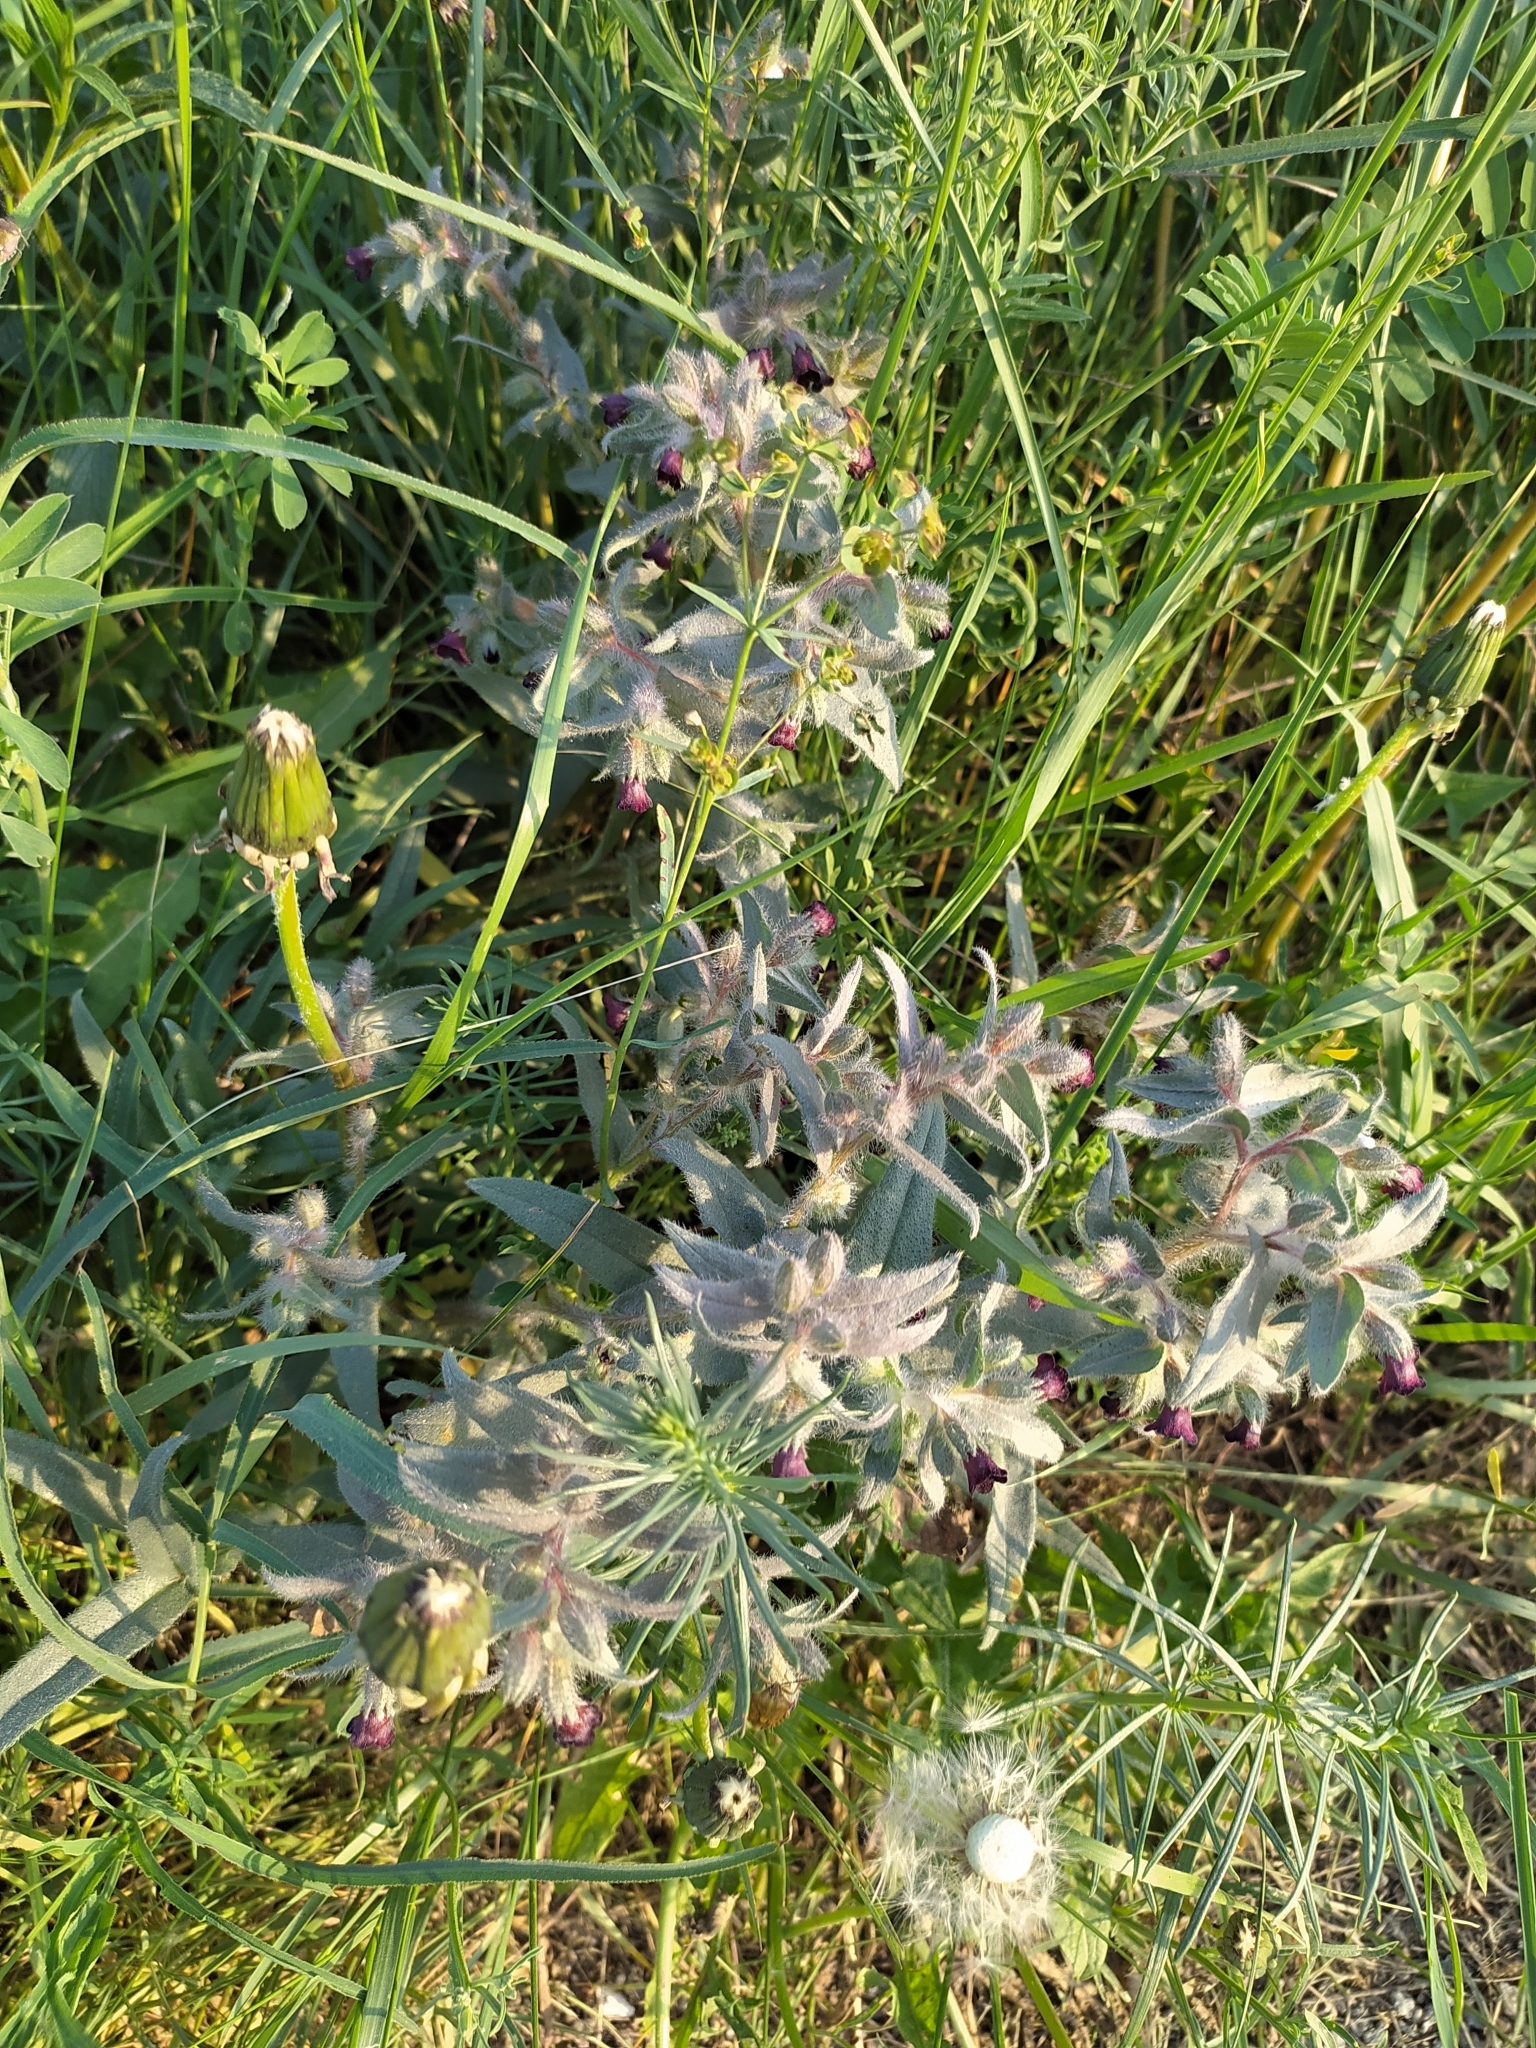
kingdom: Plantae
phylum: Tracheophyta
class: Magnoliopsida
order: Boraginales
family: Boraginaceae
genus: Nonea
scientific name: Nonea pulla
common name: Brown nonea
